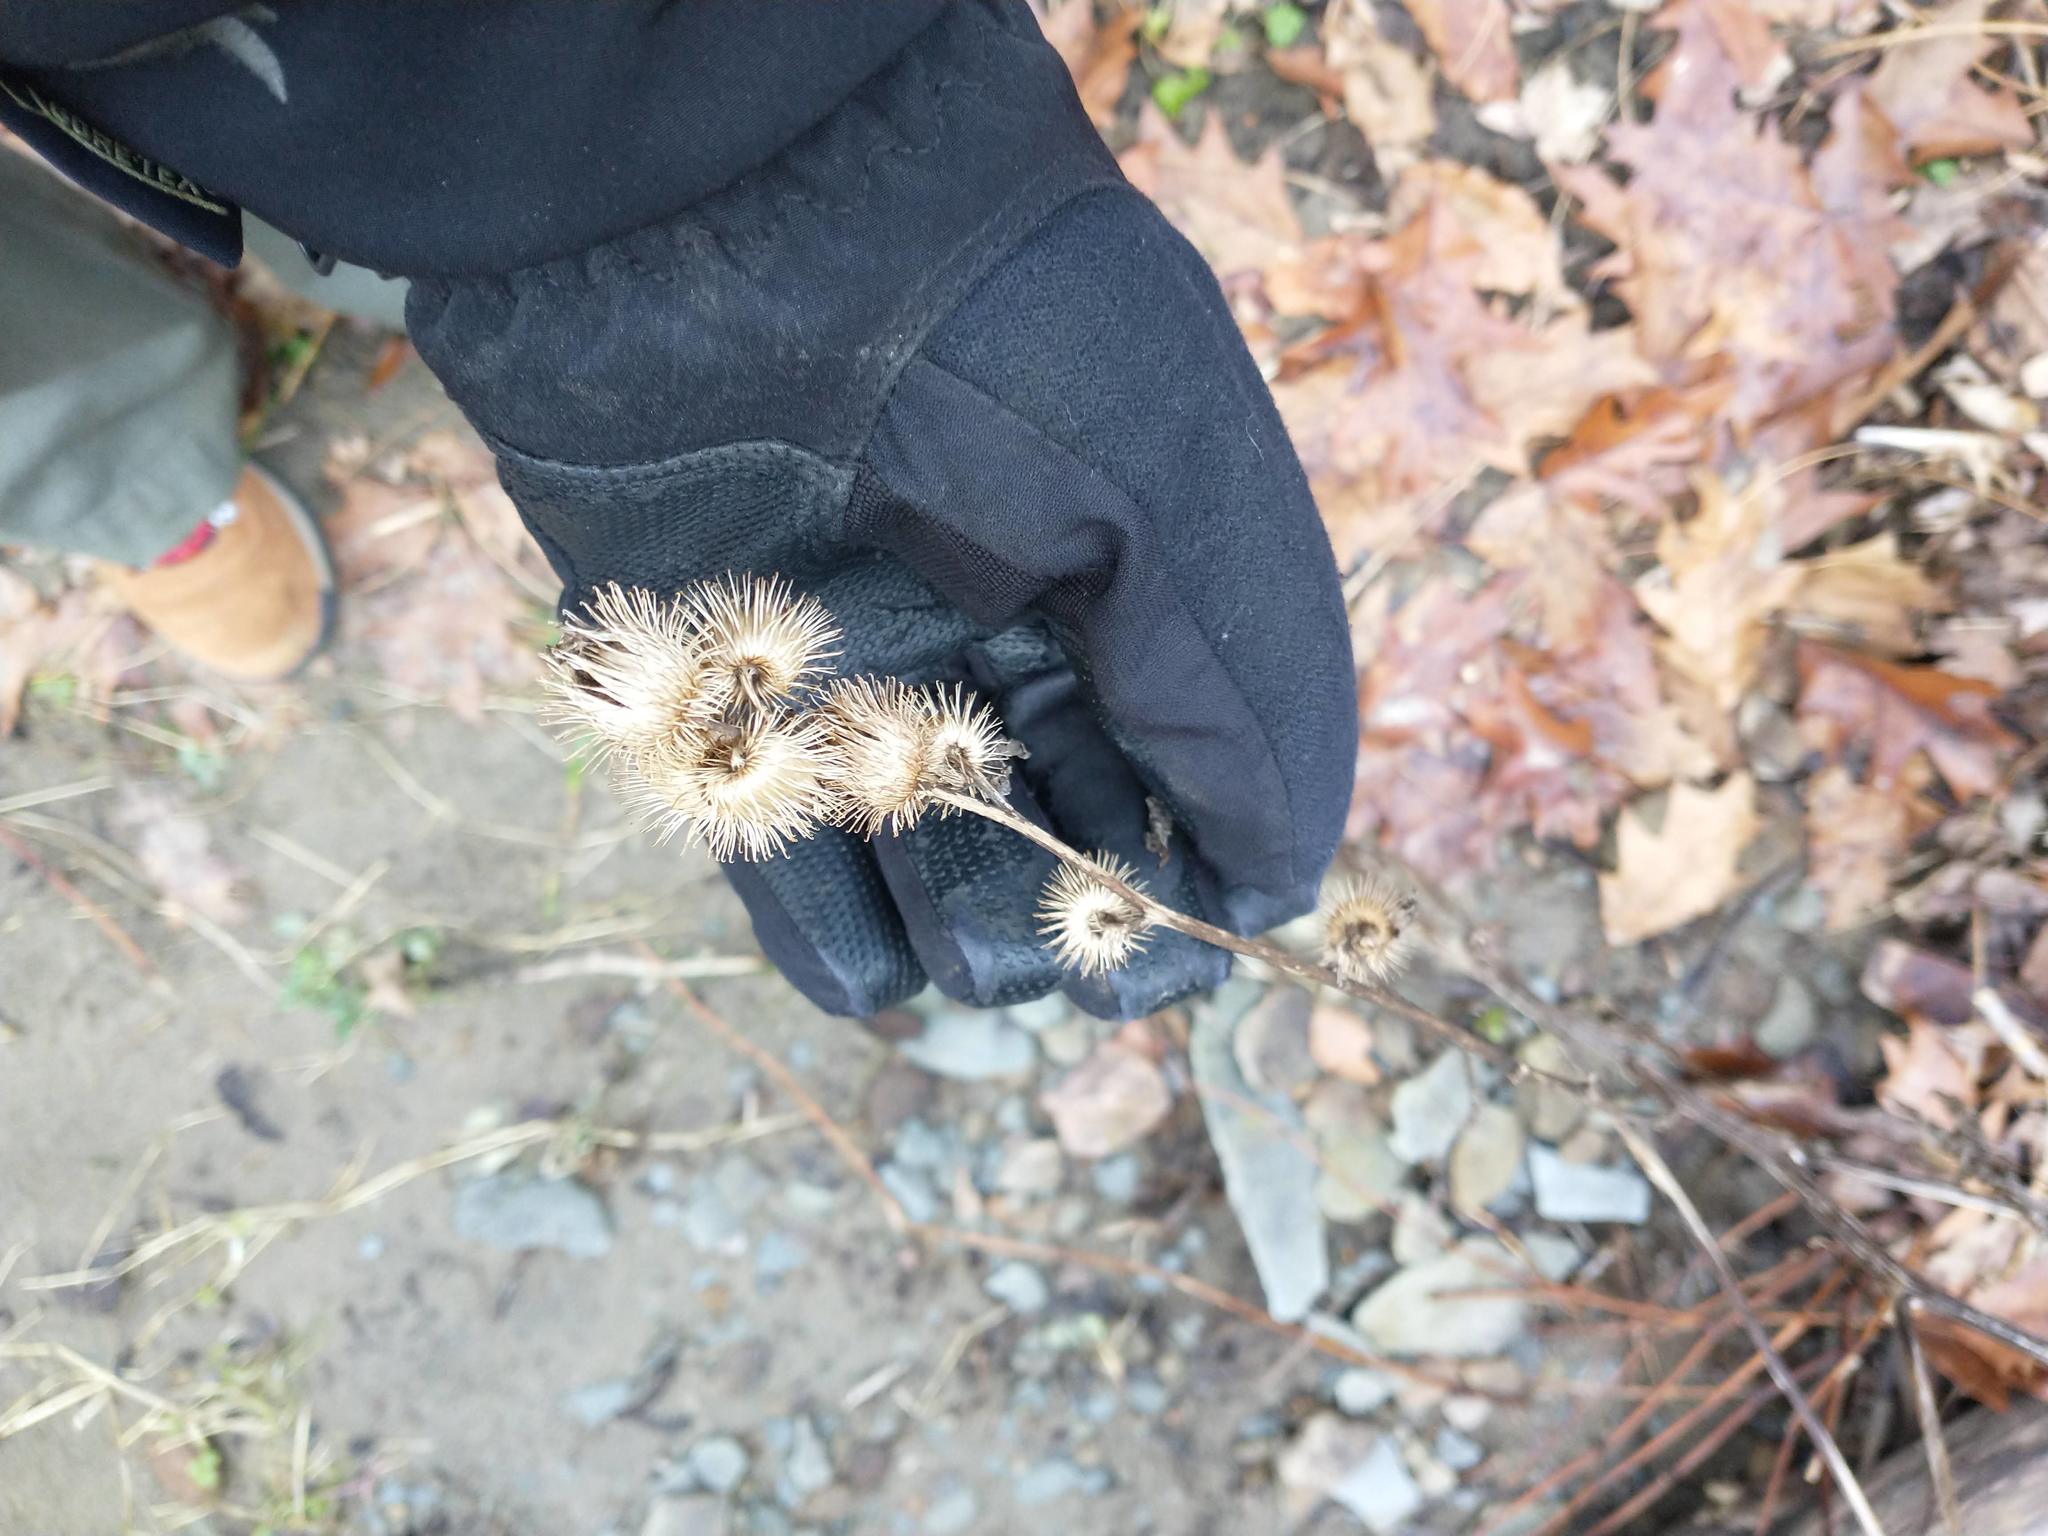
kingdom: Plantae
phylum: Tracheophyta
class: Magnoliopsida
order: Asterales
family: Asteraceae
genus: Arctium
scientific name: Arctium minus
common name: Lesser burdock
